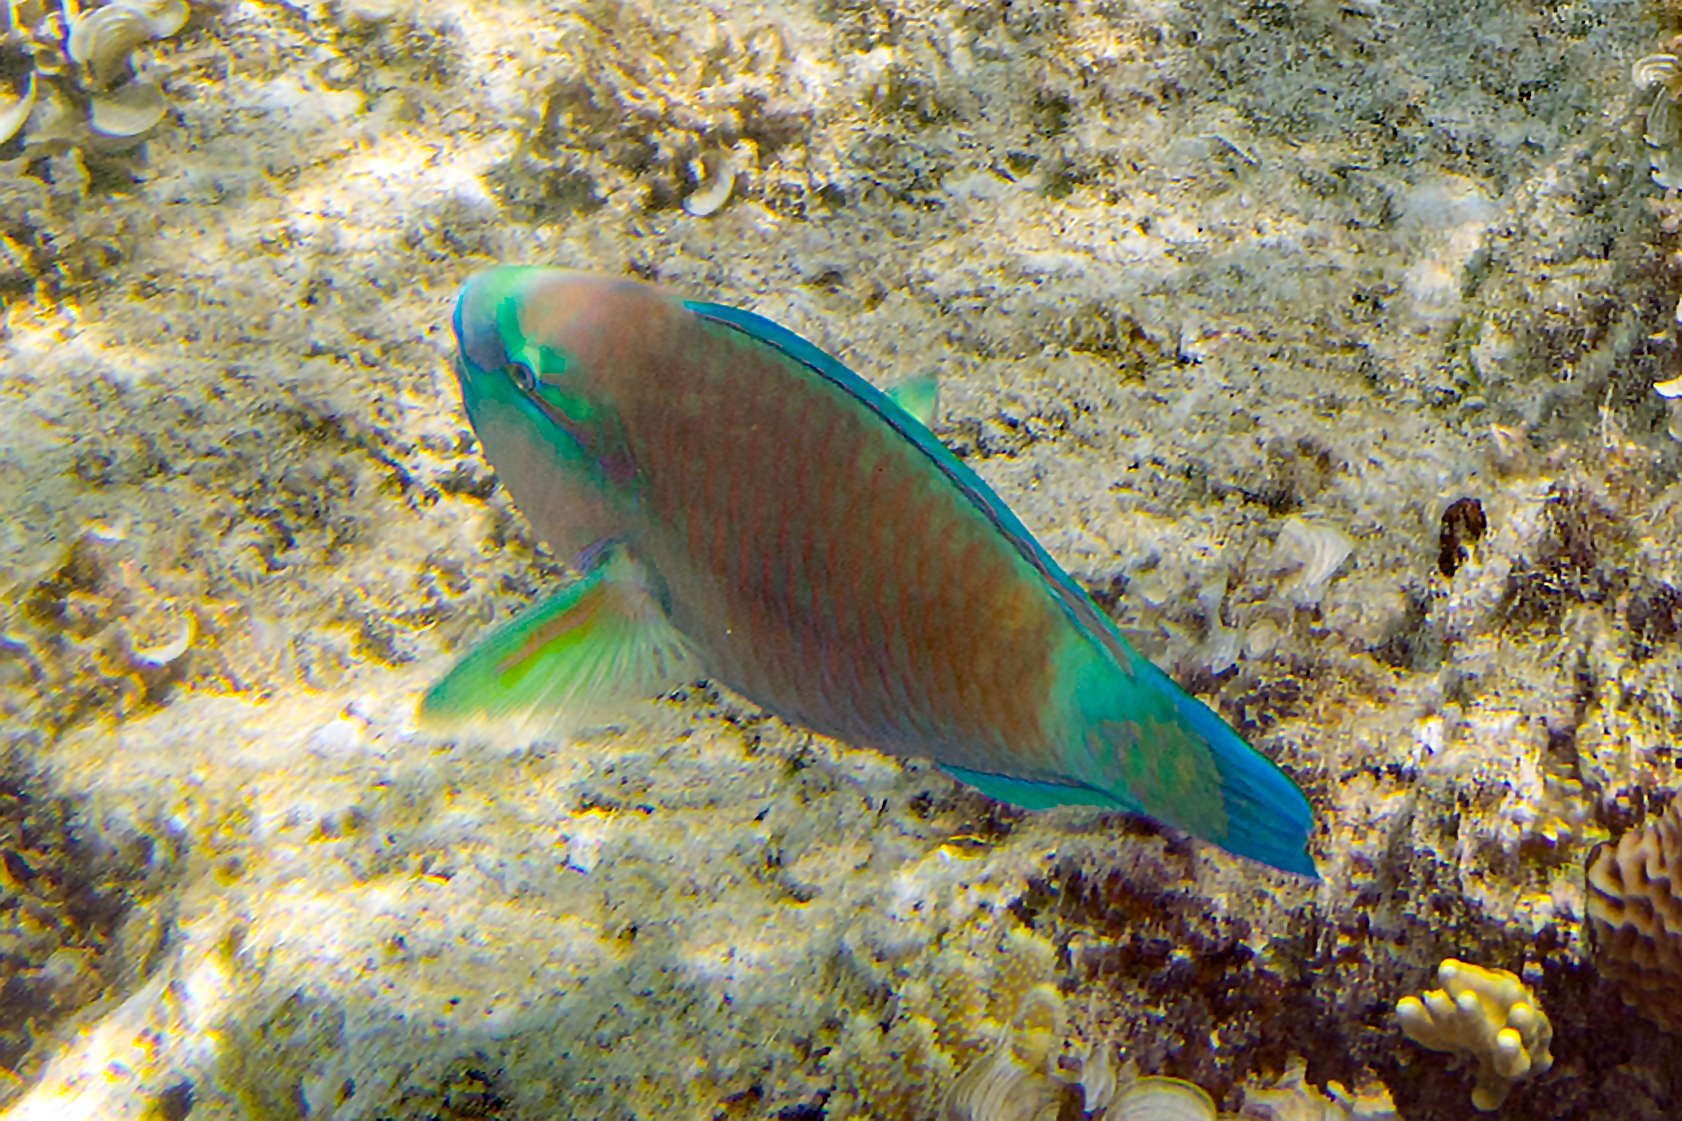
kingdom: Animalia
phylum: Chordata
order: Perciformes
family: Scaridae
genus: Chlorurus
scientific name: Chlorurus spilurus
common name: Bullethead parrotfish
